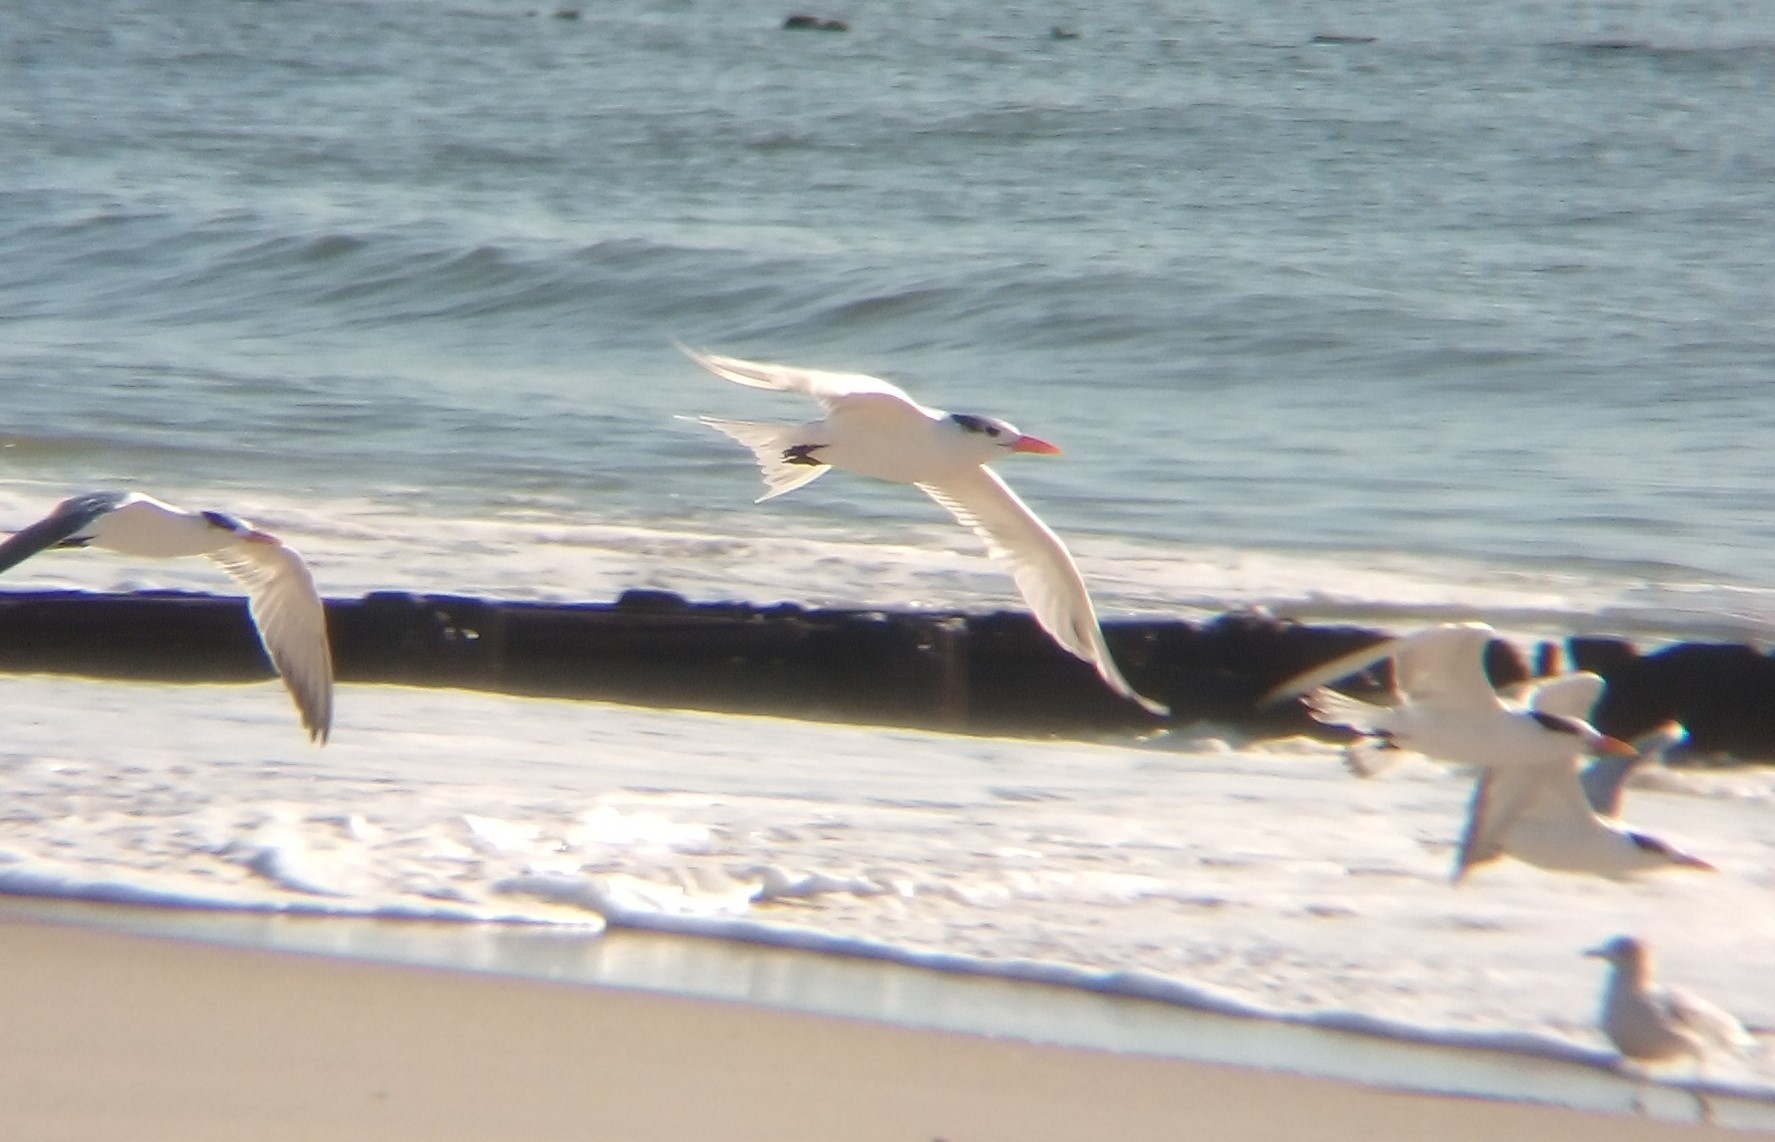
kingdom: Animalia
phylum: Chordata
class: Aves
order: Charadriiformes
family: Laridae
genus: Thalasseus
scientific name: Thalasseus maximus
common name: Royal tern
